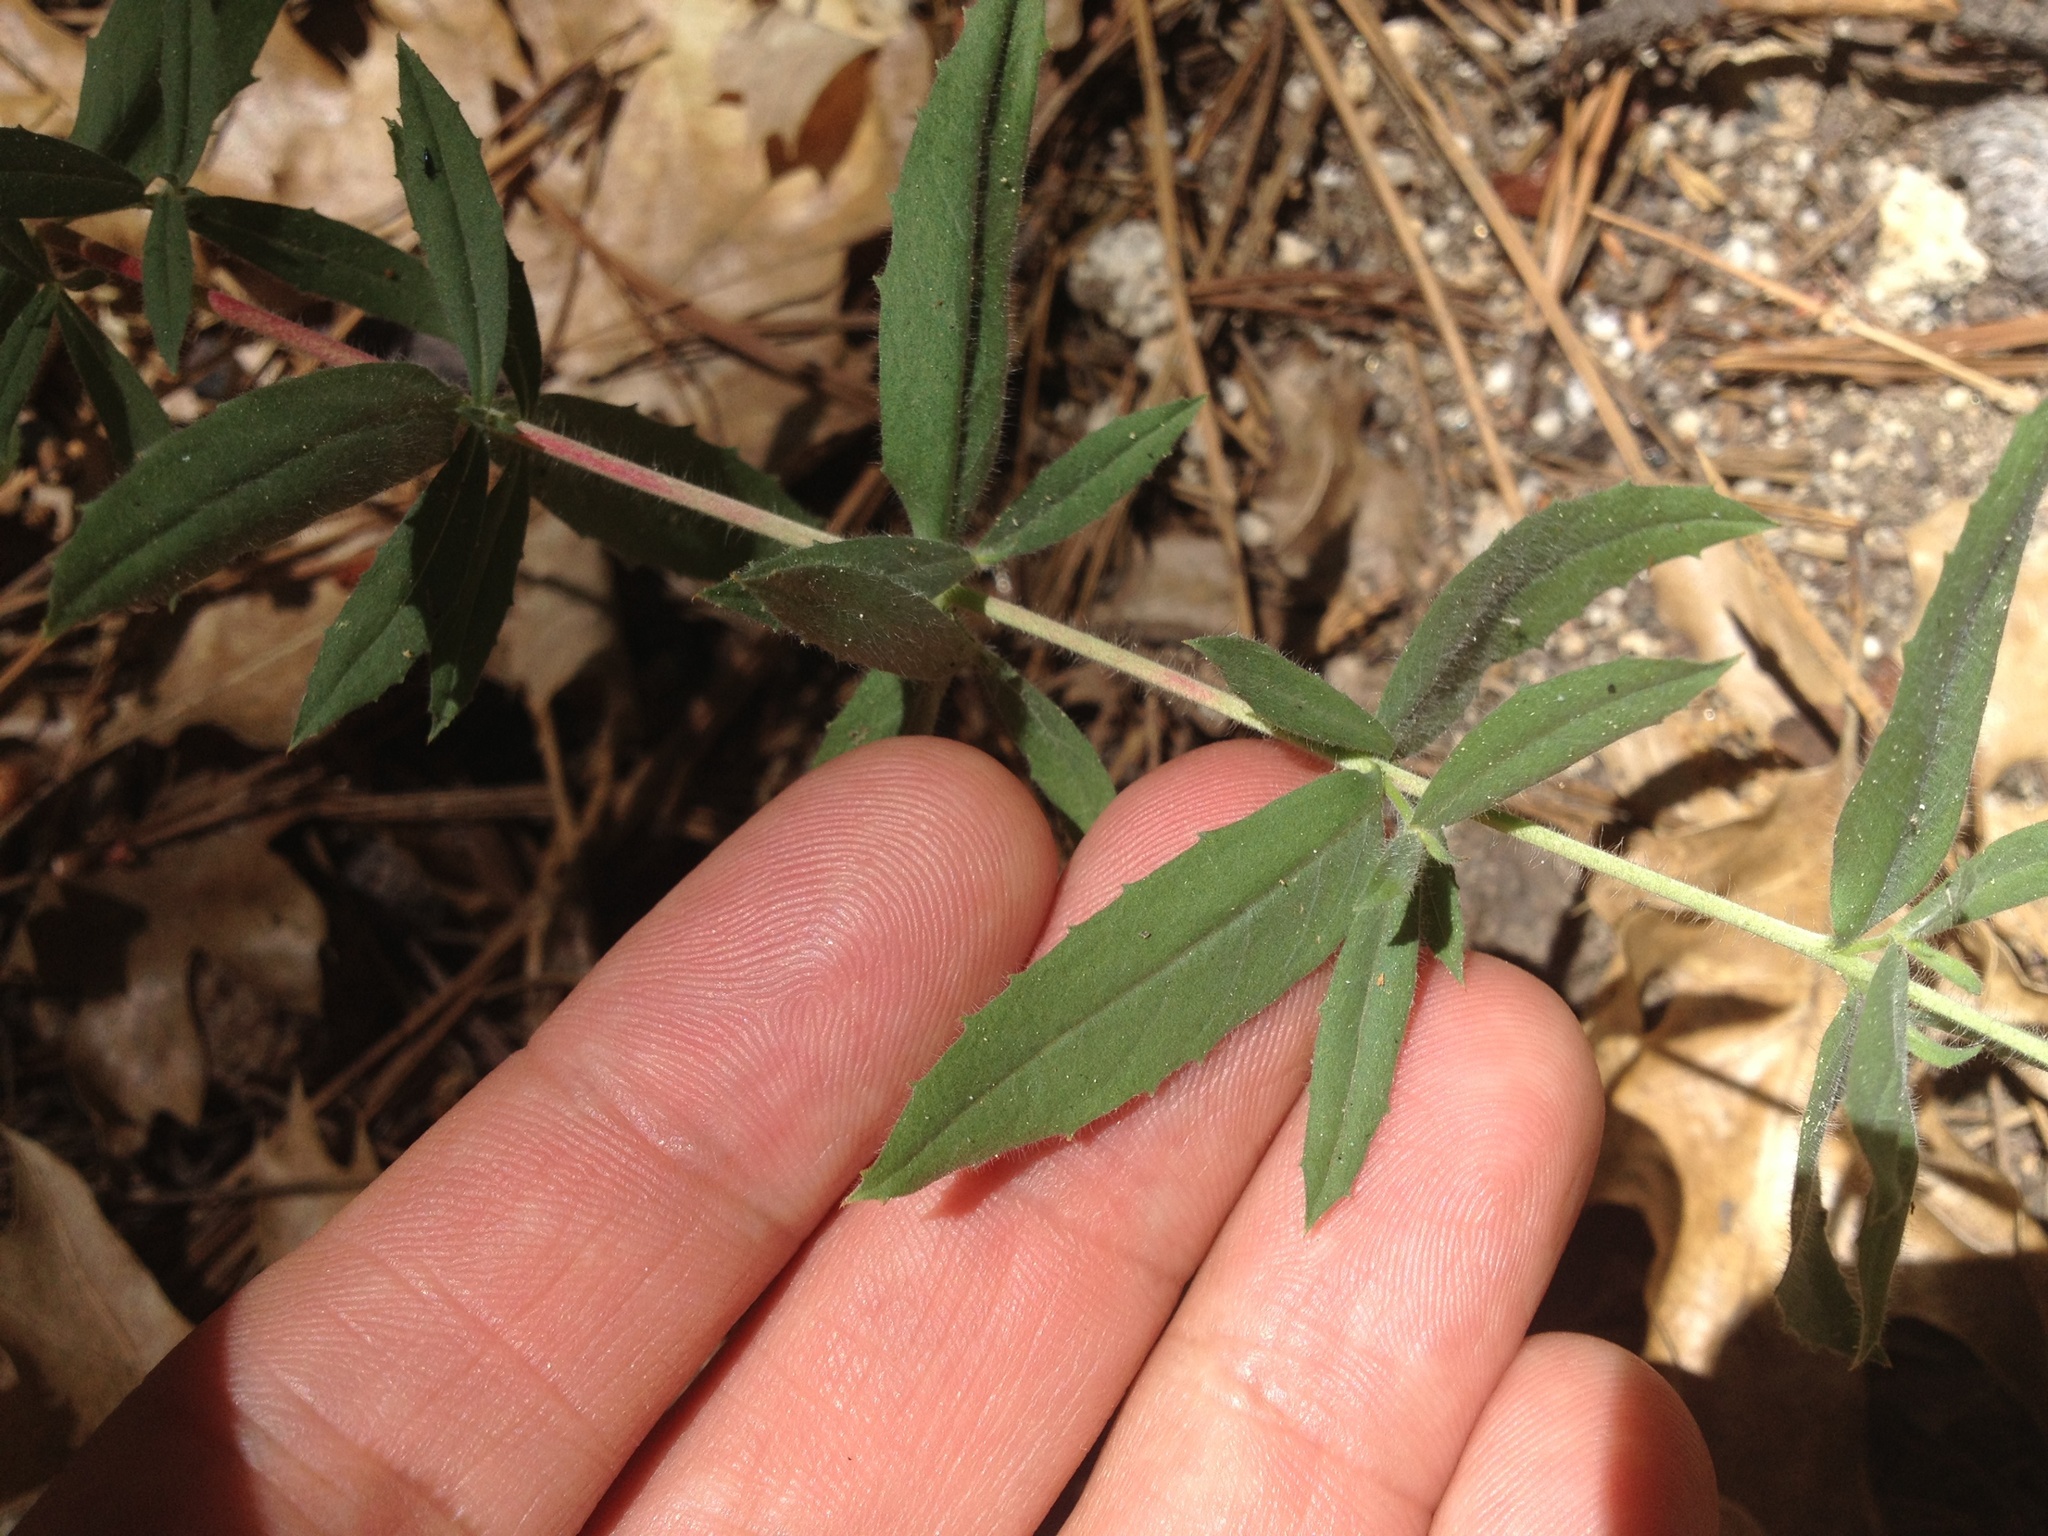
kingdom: Plantae
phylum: Tracheophyta
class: Magnoliopsida
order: Lamiales
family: Plantaginaceae
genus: Keckiella
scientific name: Keckiella ternata
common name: Scarlet keckiella
